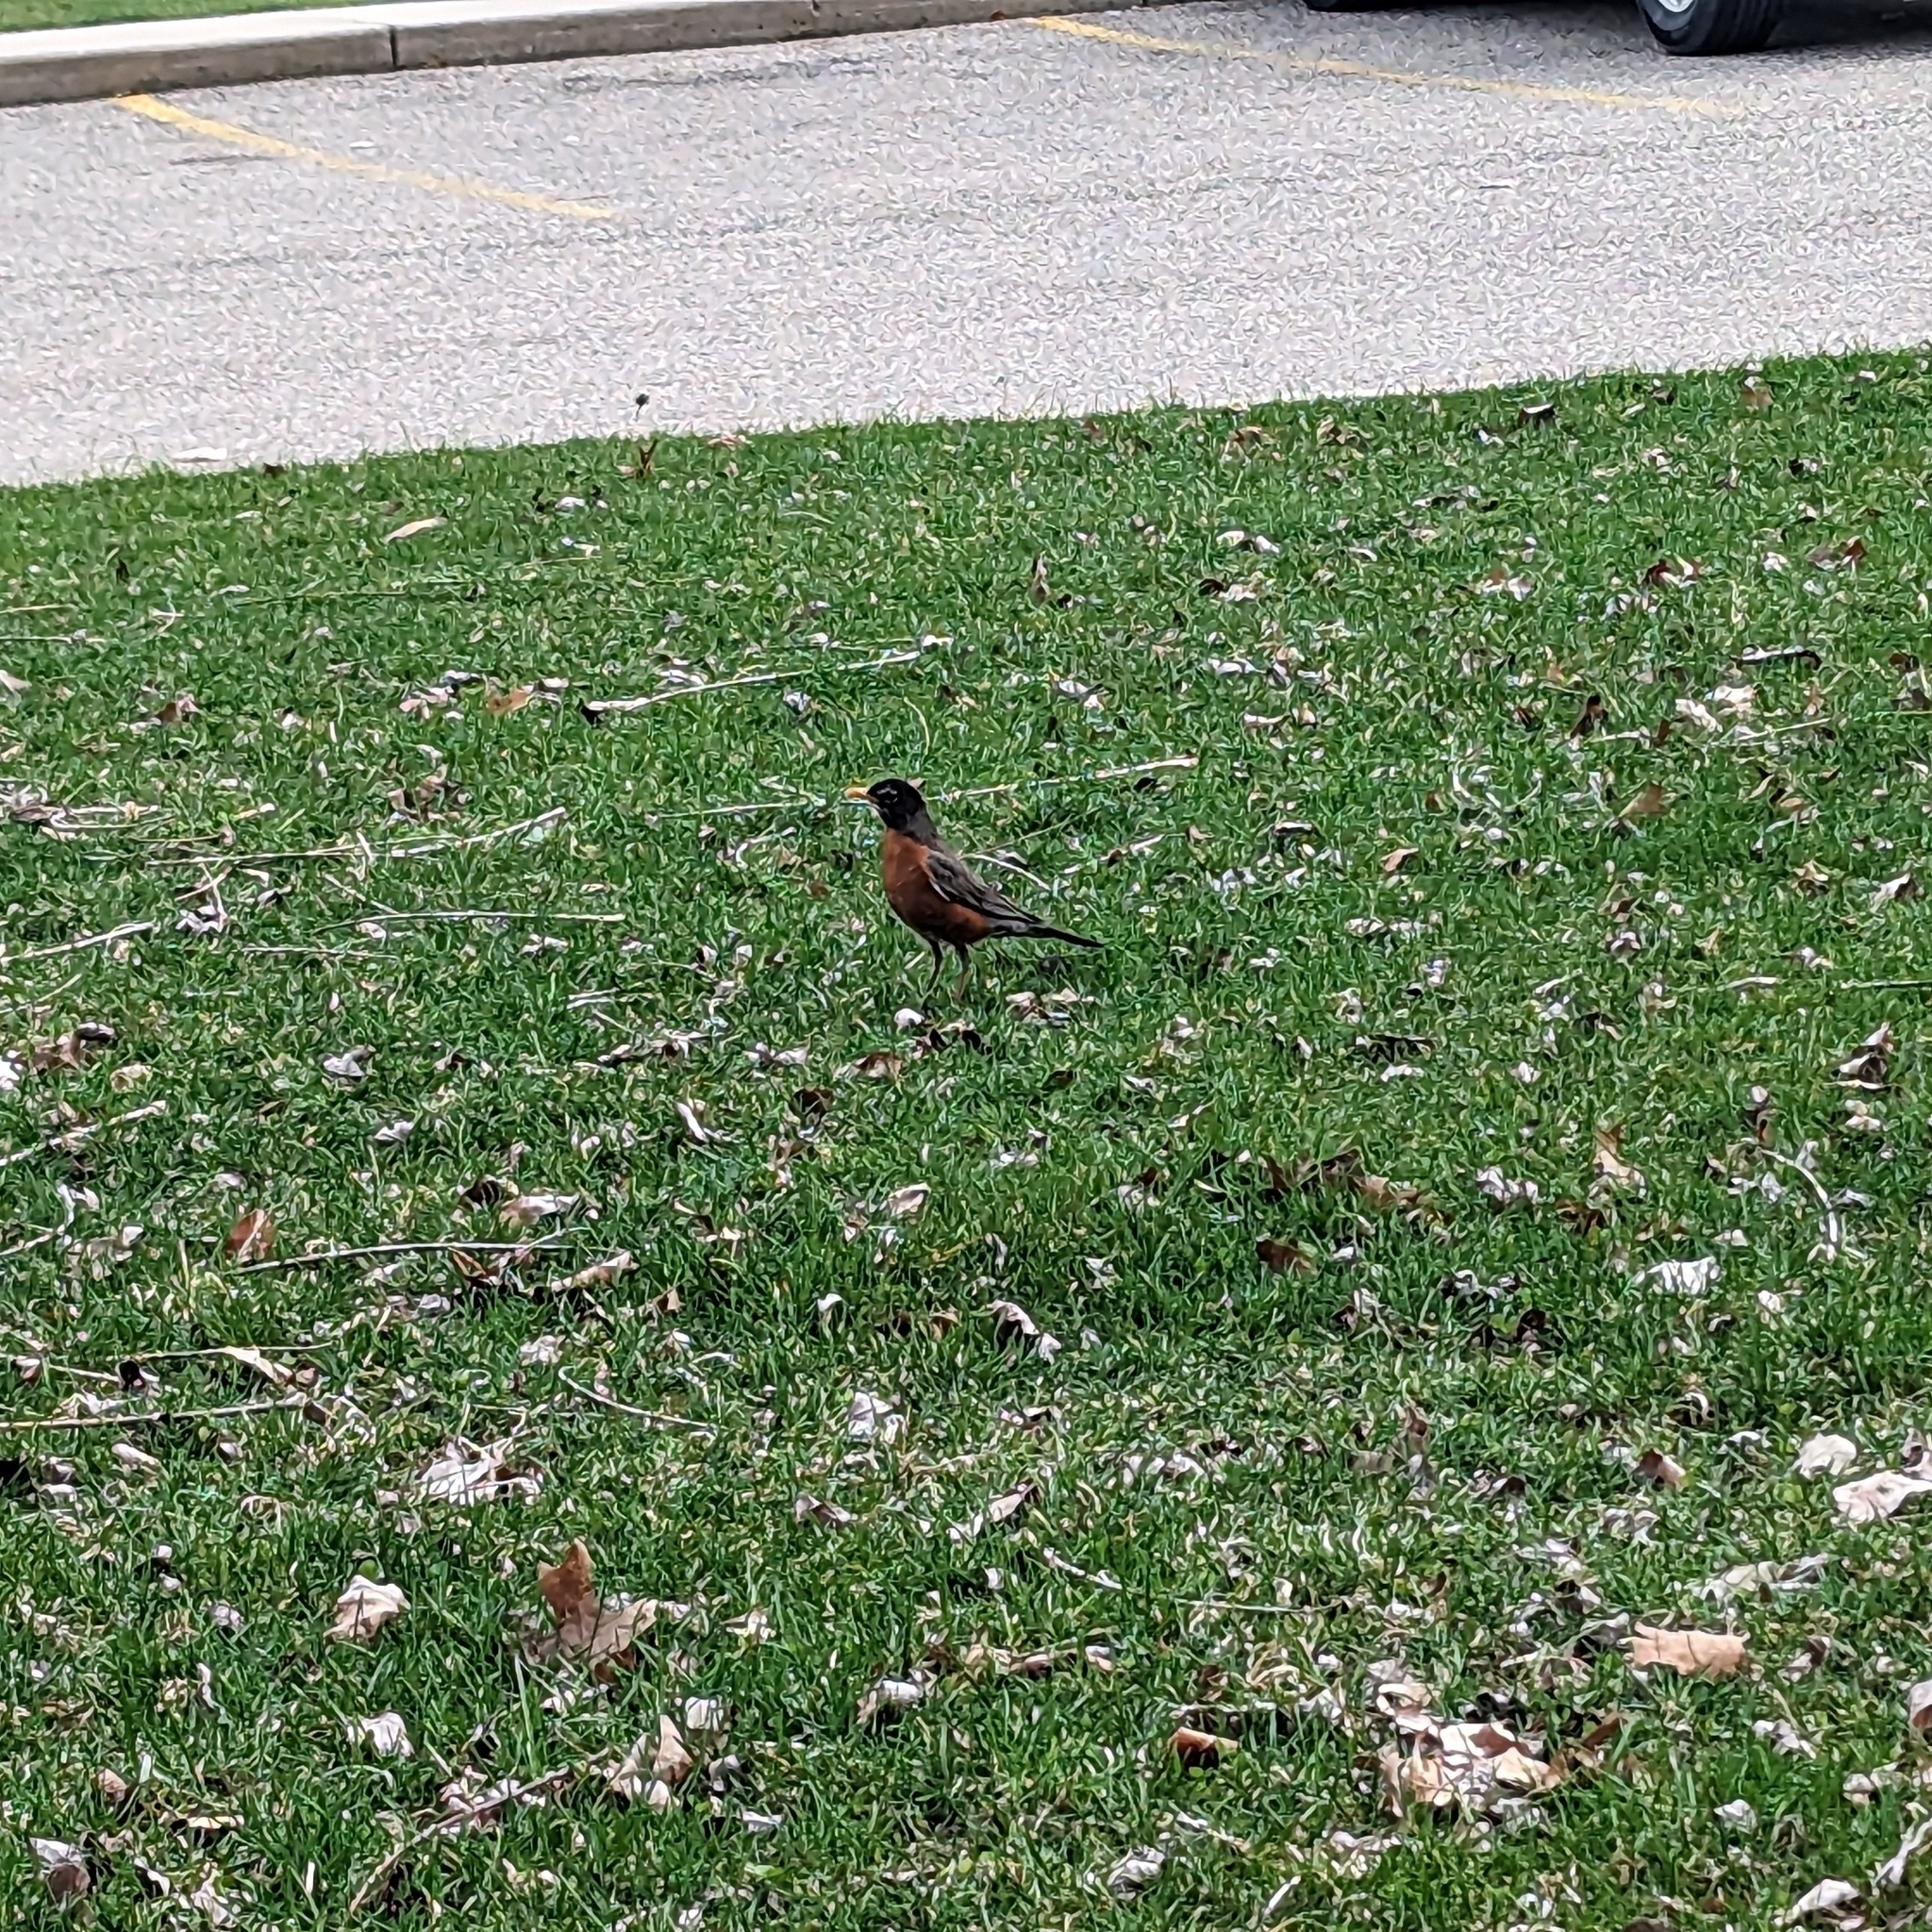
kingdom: Animalia
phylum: Chordata
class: Aves
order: Passeriformes
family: Turdidae
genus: Turdus
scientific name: Turdus migratorius
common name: American robin
